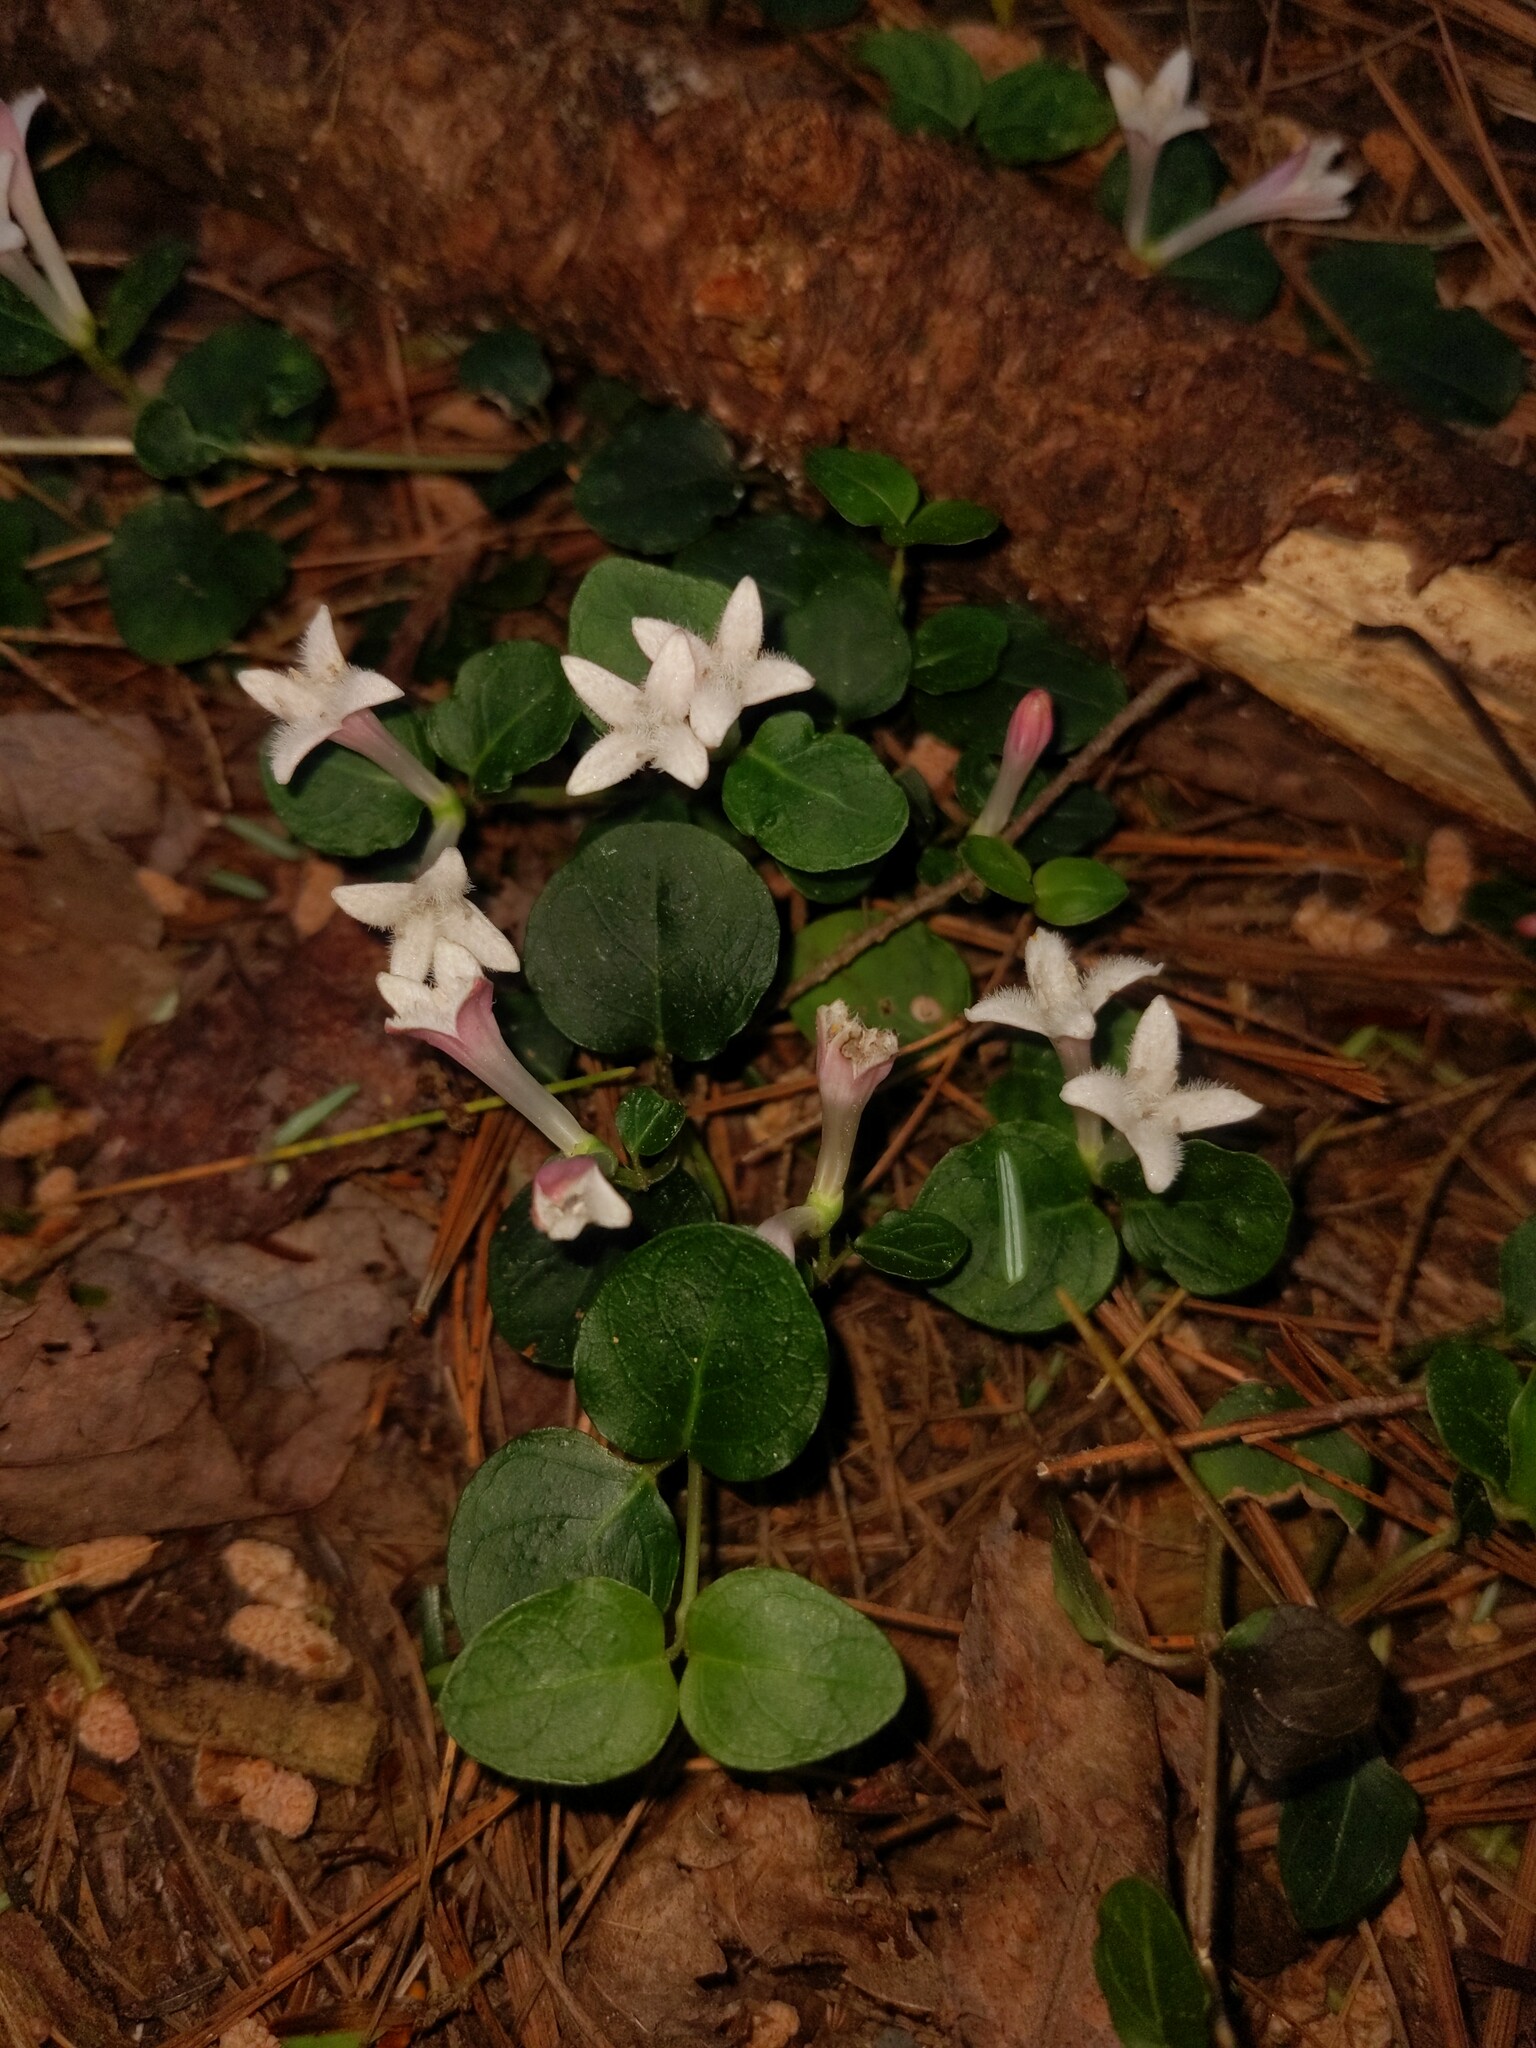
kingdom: Plantae
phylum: Tracheophyta
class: Magnoliopsida
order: Gentianales
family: Rubiaceae
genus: Mitchella
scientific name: Mitchella repens
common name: Partridge-berry
